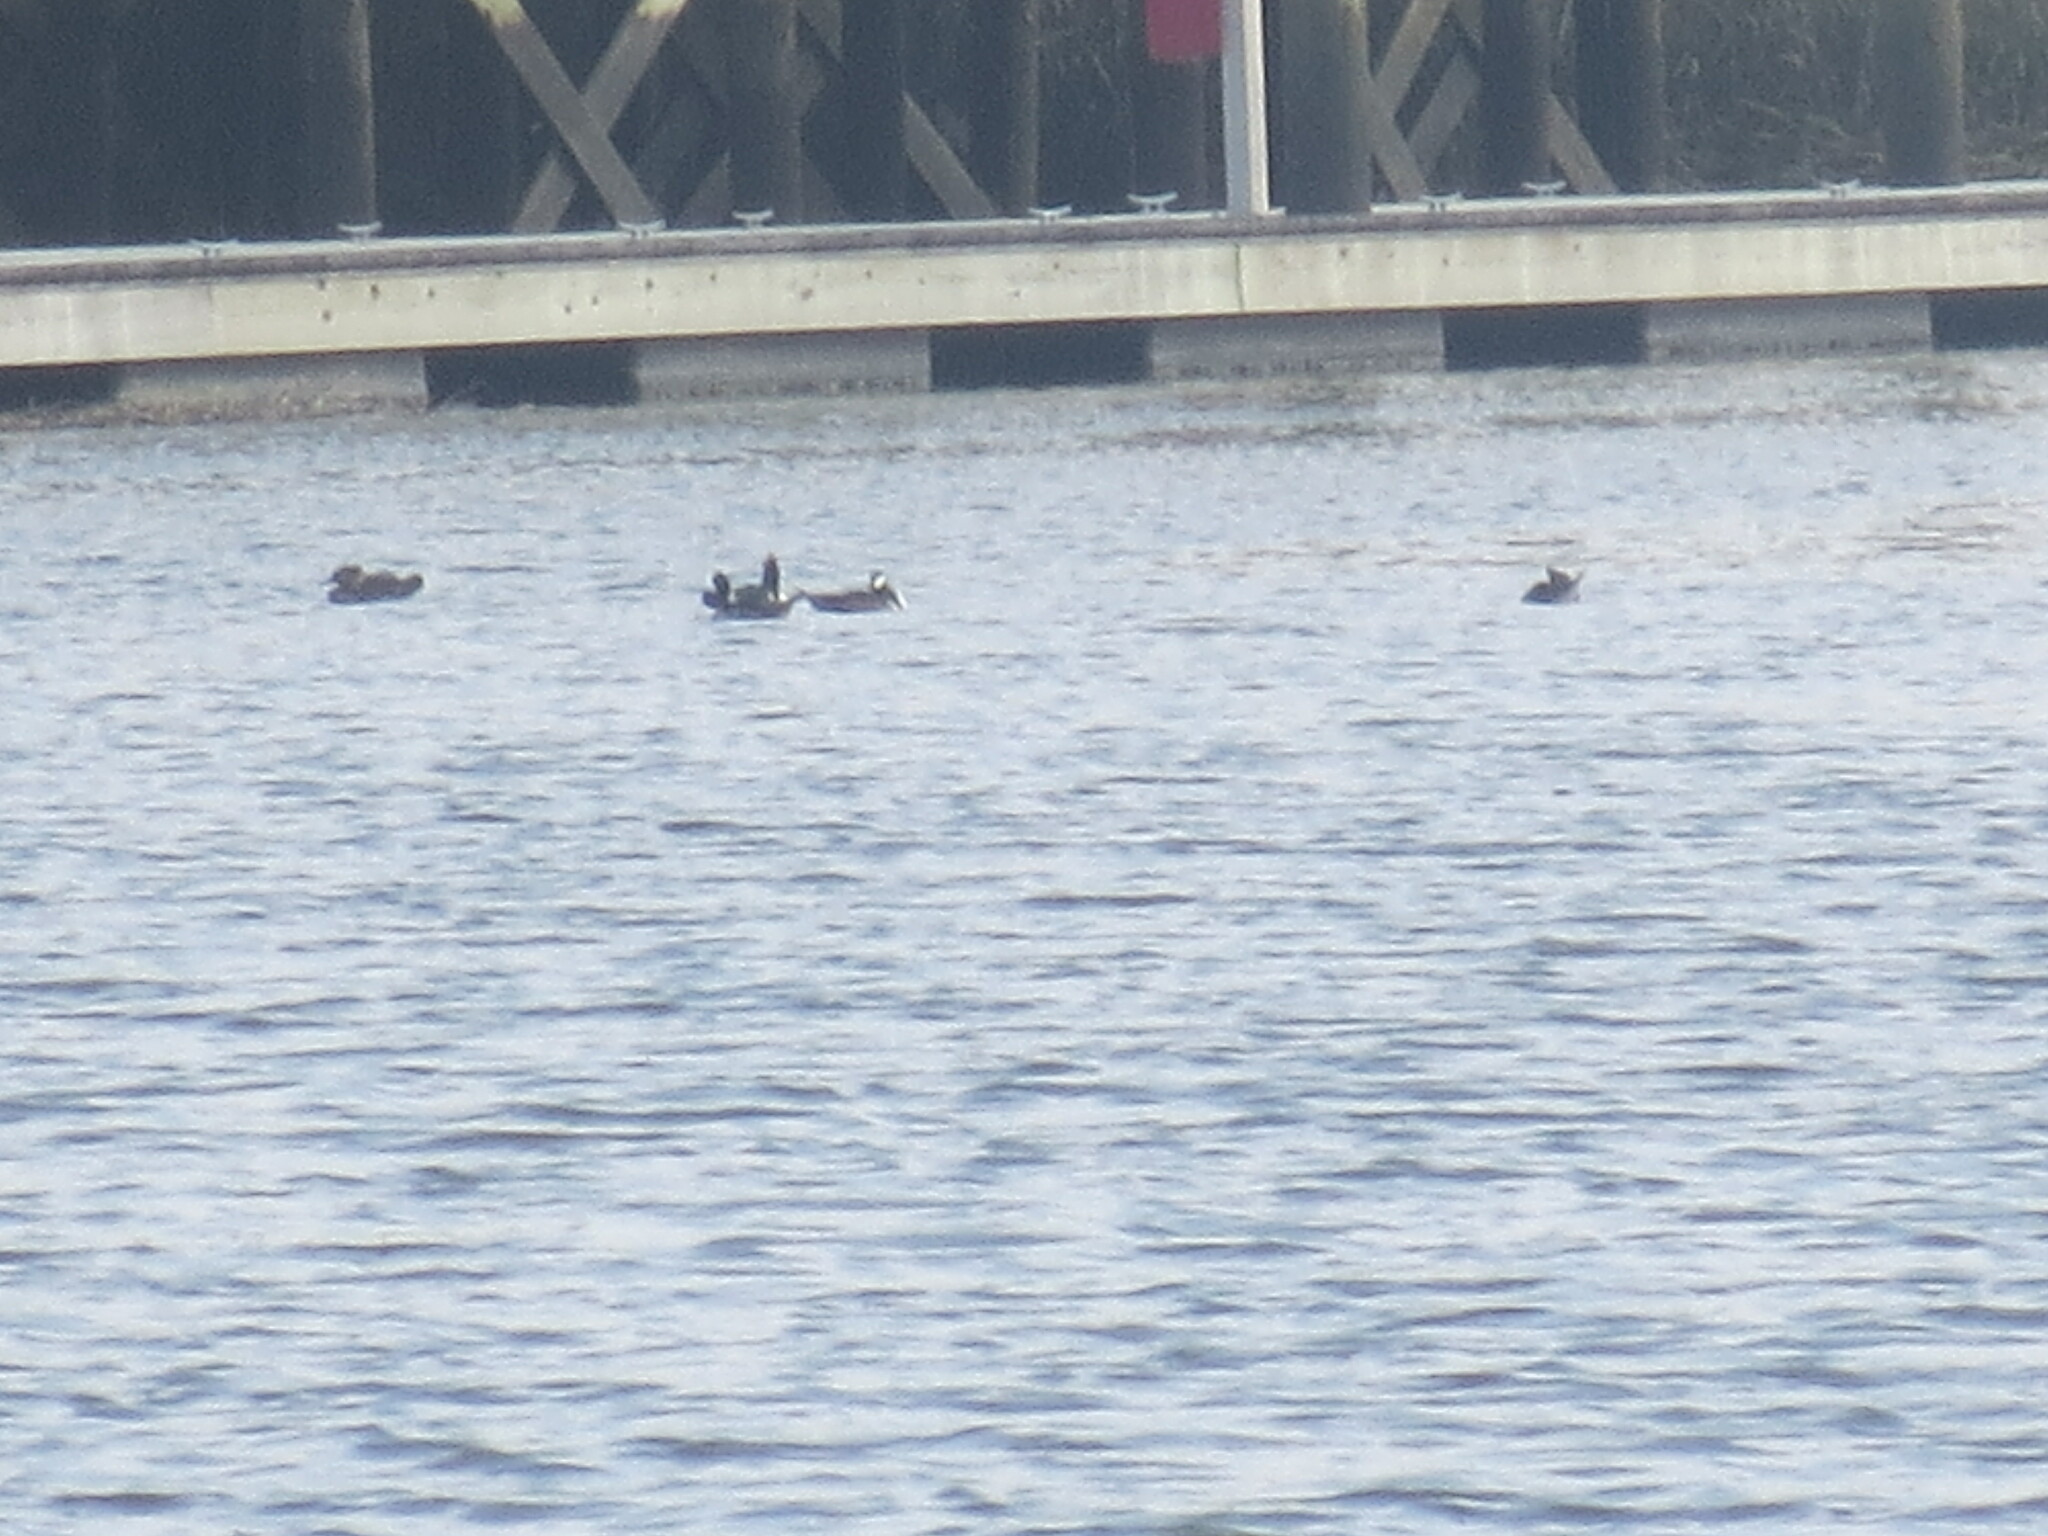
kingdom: Animalia
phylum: Chordata
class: Aves
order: Anseriformes
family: Anatidae
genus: Lophodytes
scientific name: Lophodytes cucullatus
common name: Hooded merganser
